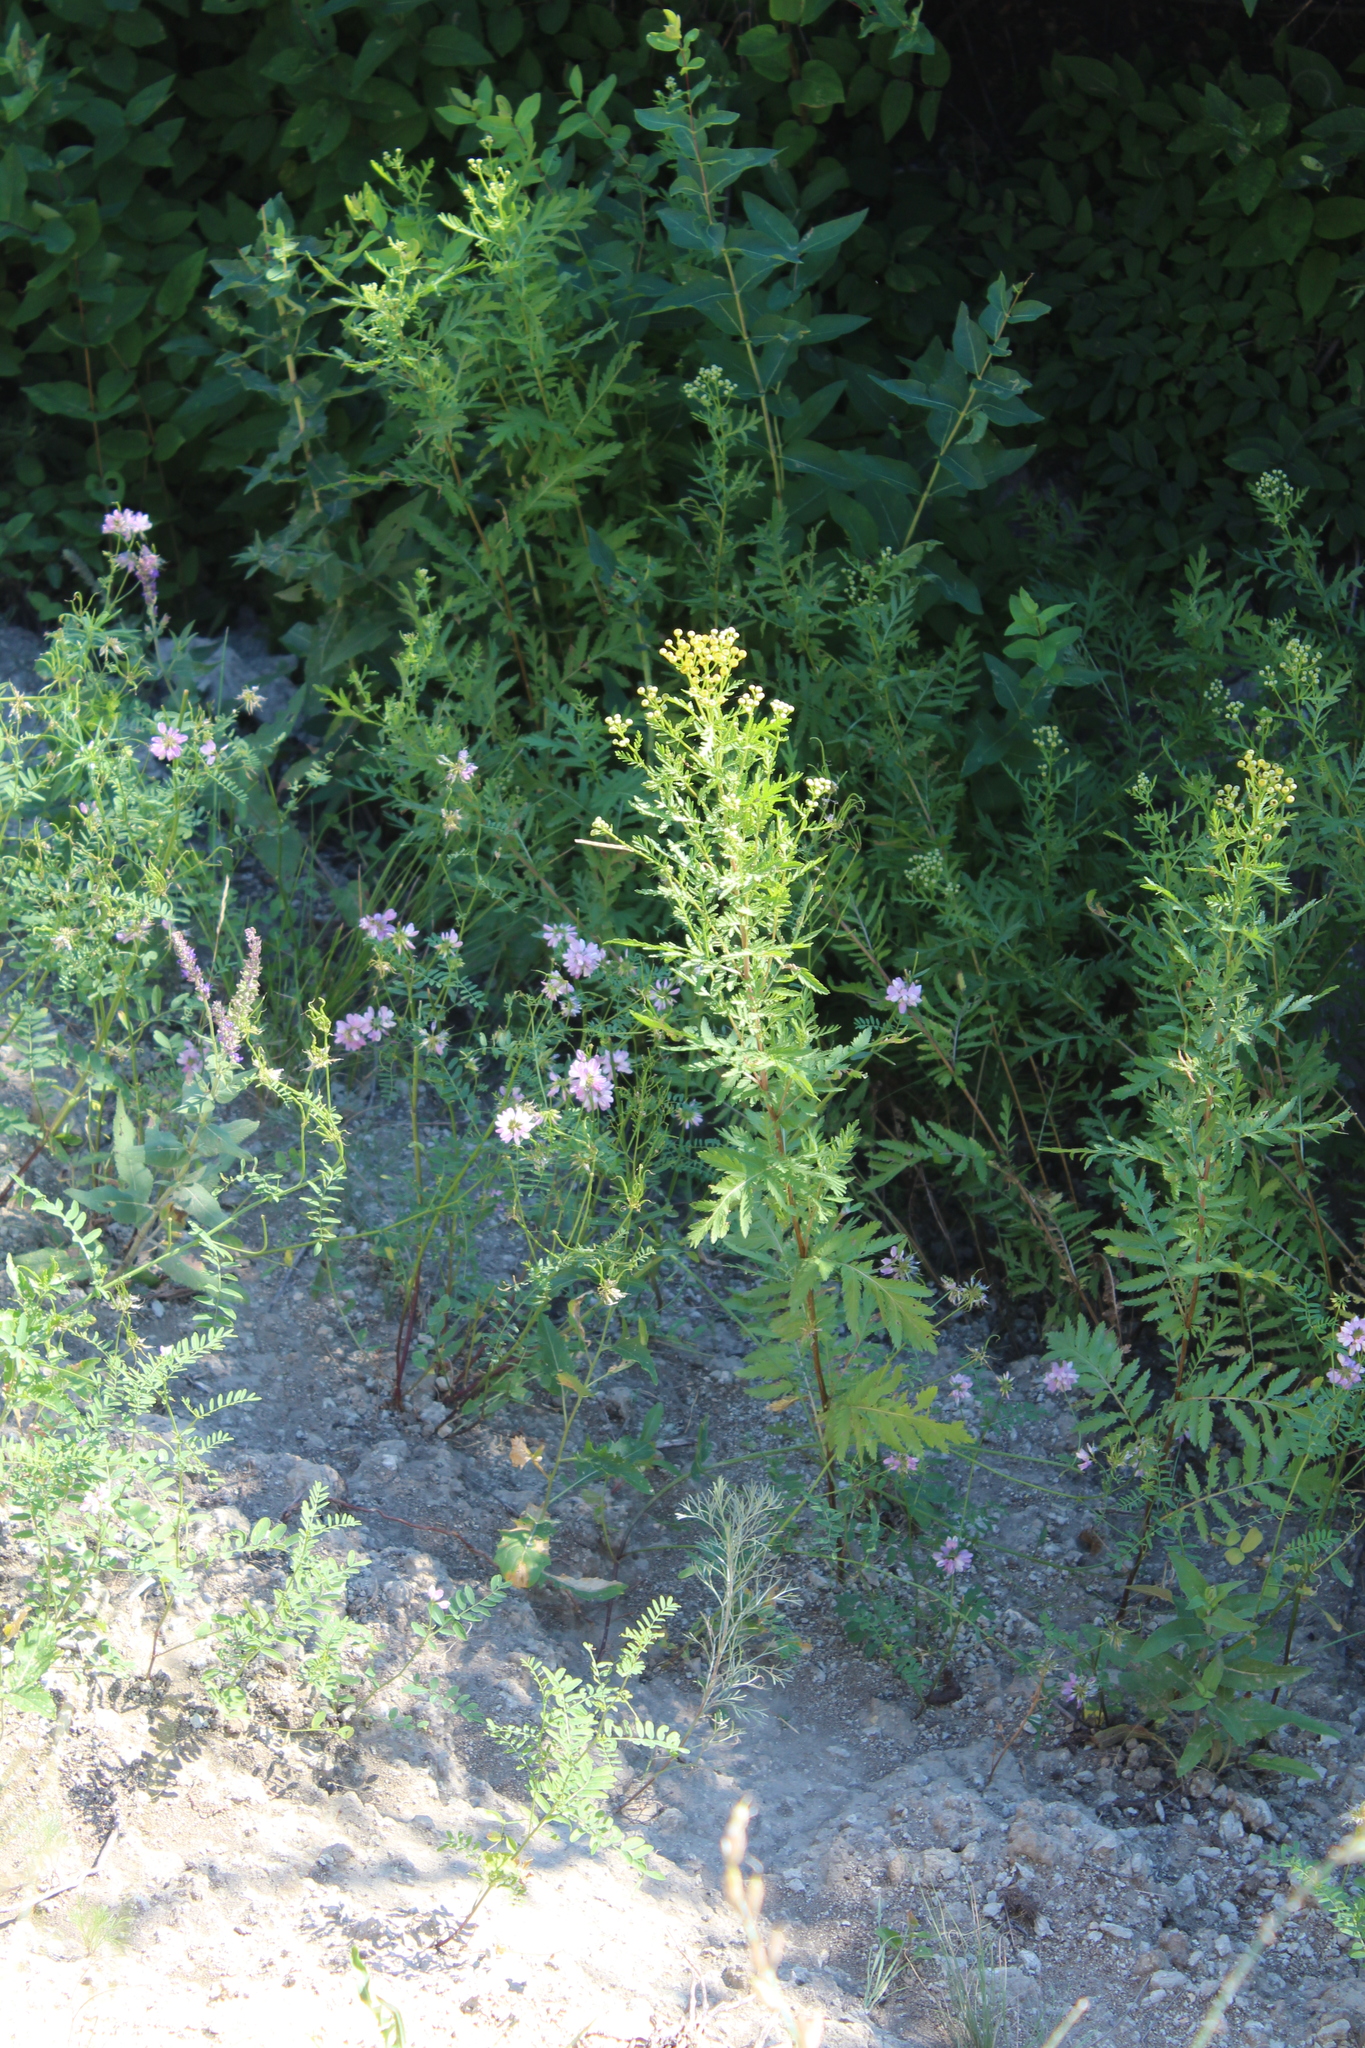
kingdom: Plantae
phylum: Tracheophyta
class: Magnoliopsida
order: Asterales
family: Asteraceae
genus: Tanacetum
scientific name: Tanacetum vulgare
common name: Common tansy
